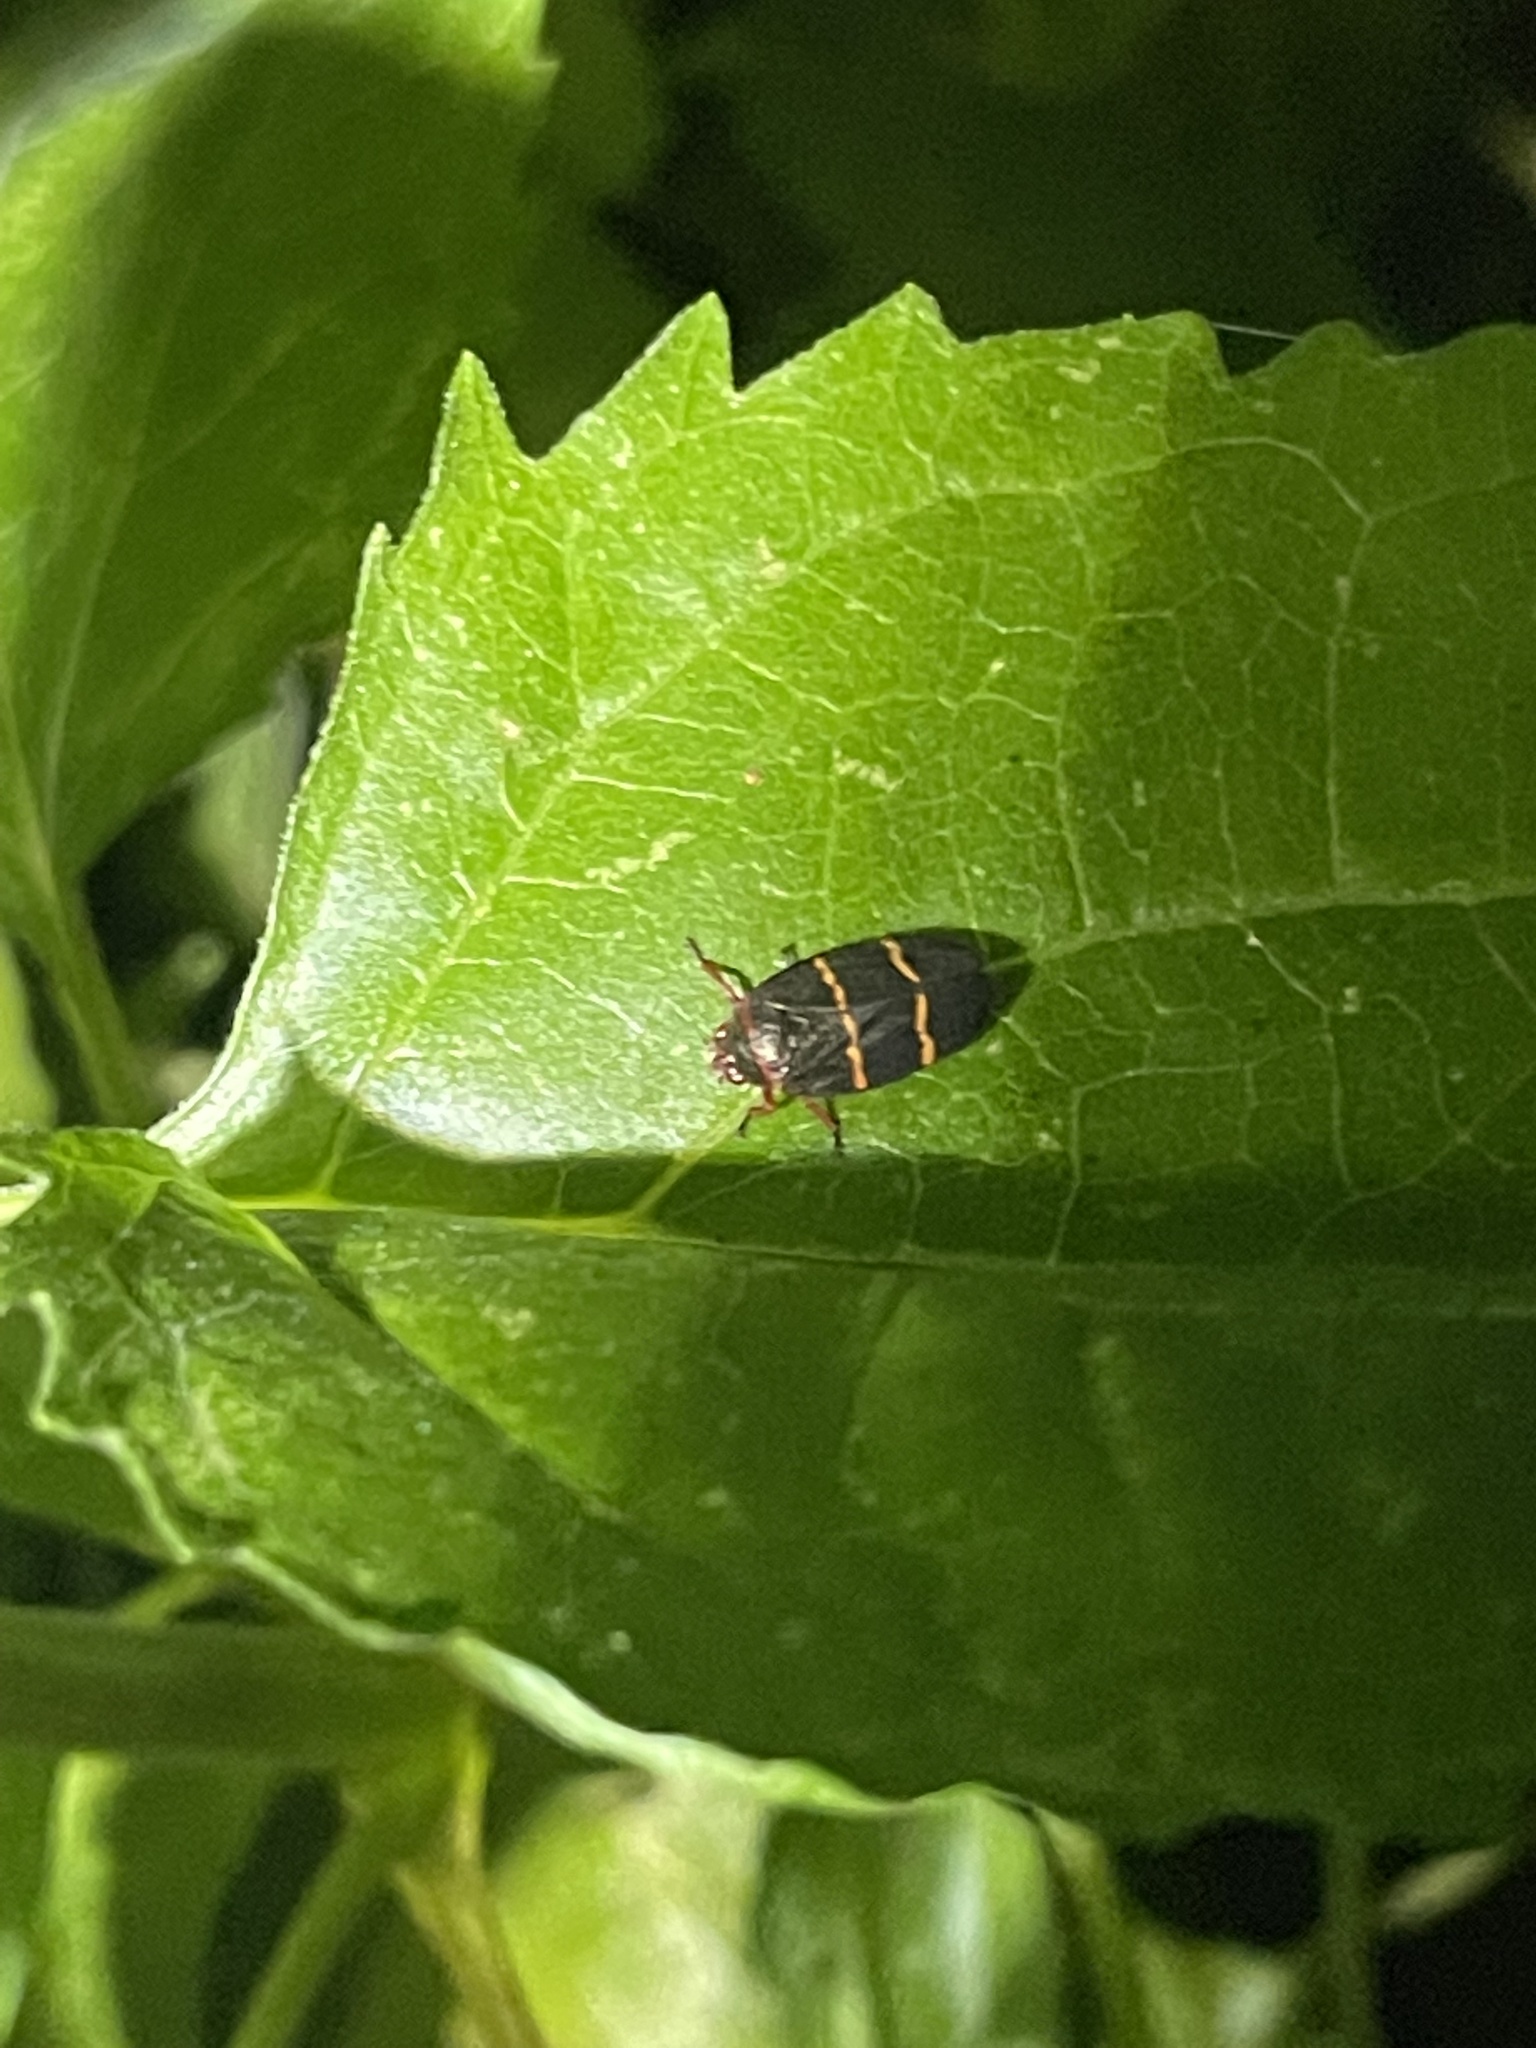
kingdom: Animalia
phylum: Arthropoda
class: Insecta
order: Hemiptera
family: Cercopidae
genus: Prosapia
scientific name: Prosapia bicincta
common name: Twolined spittlebug
